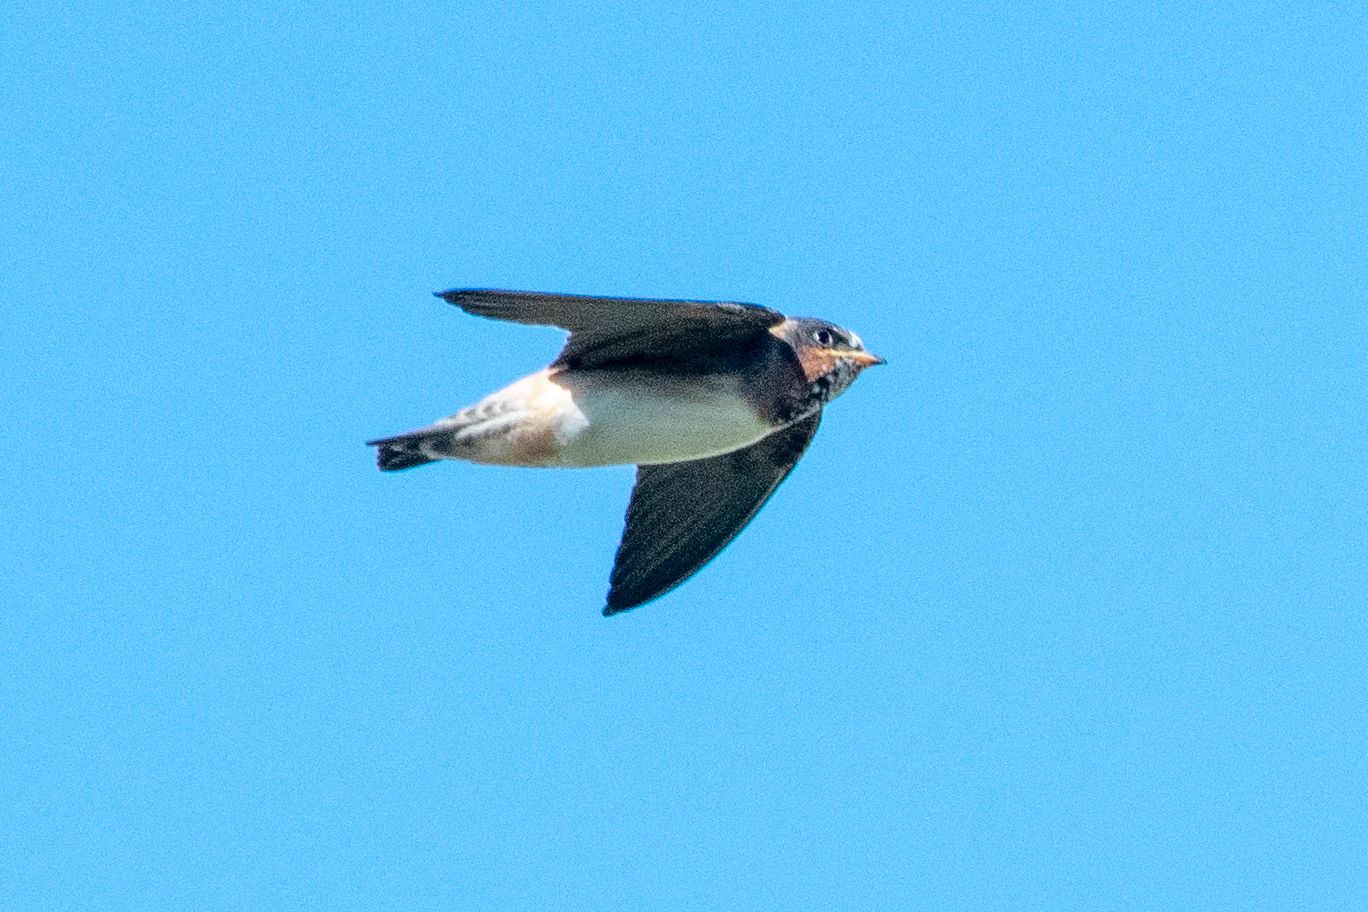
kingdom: Animalia
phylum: Chordata
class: Aves
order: Passeriformes
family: Hirundinidae
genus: Petrochelidon
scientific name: Petrochelidon pyrrhonota
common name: American cliff swallow
